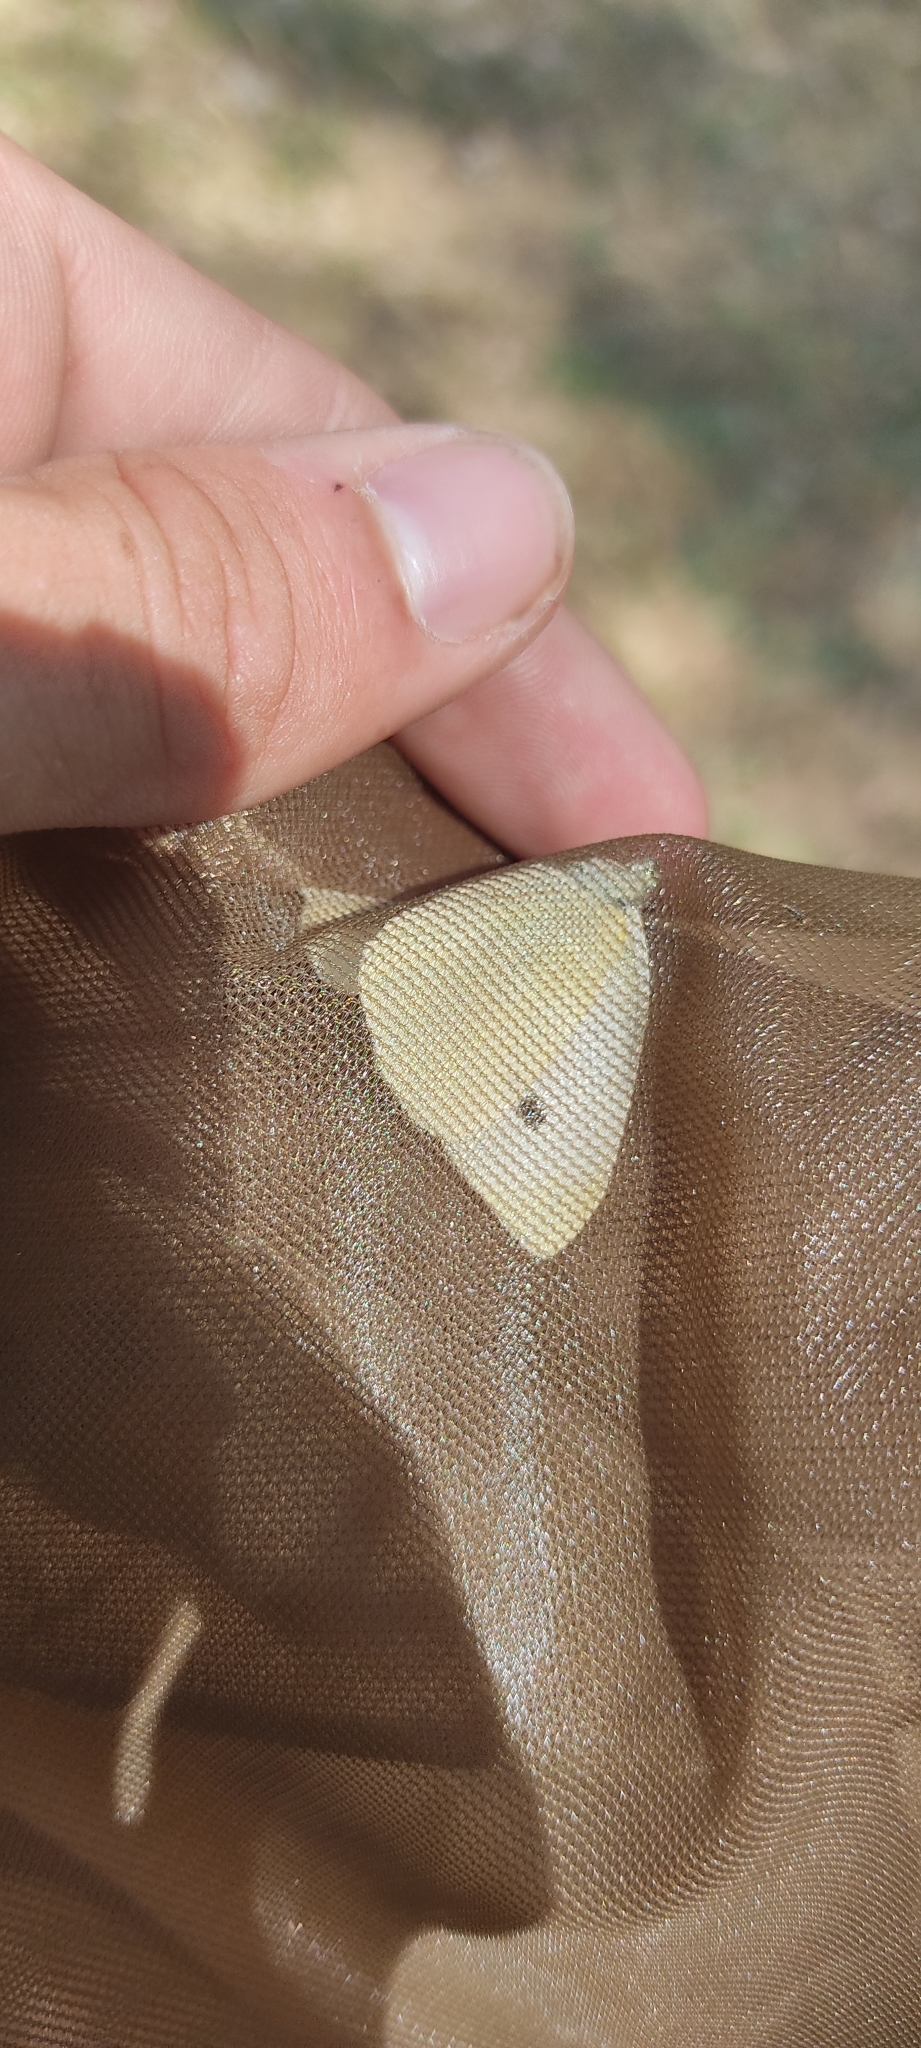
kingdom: Animalia
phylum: Arthropoda
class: Insecta
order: Lepidoptera
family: Pieridae
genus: Pieris
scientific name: Pieris rapae
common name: Small white
